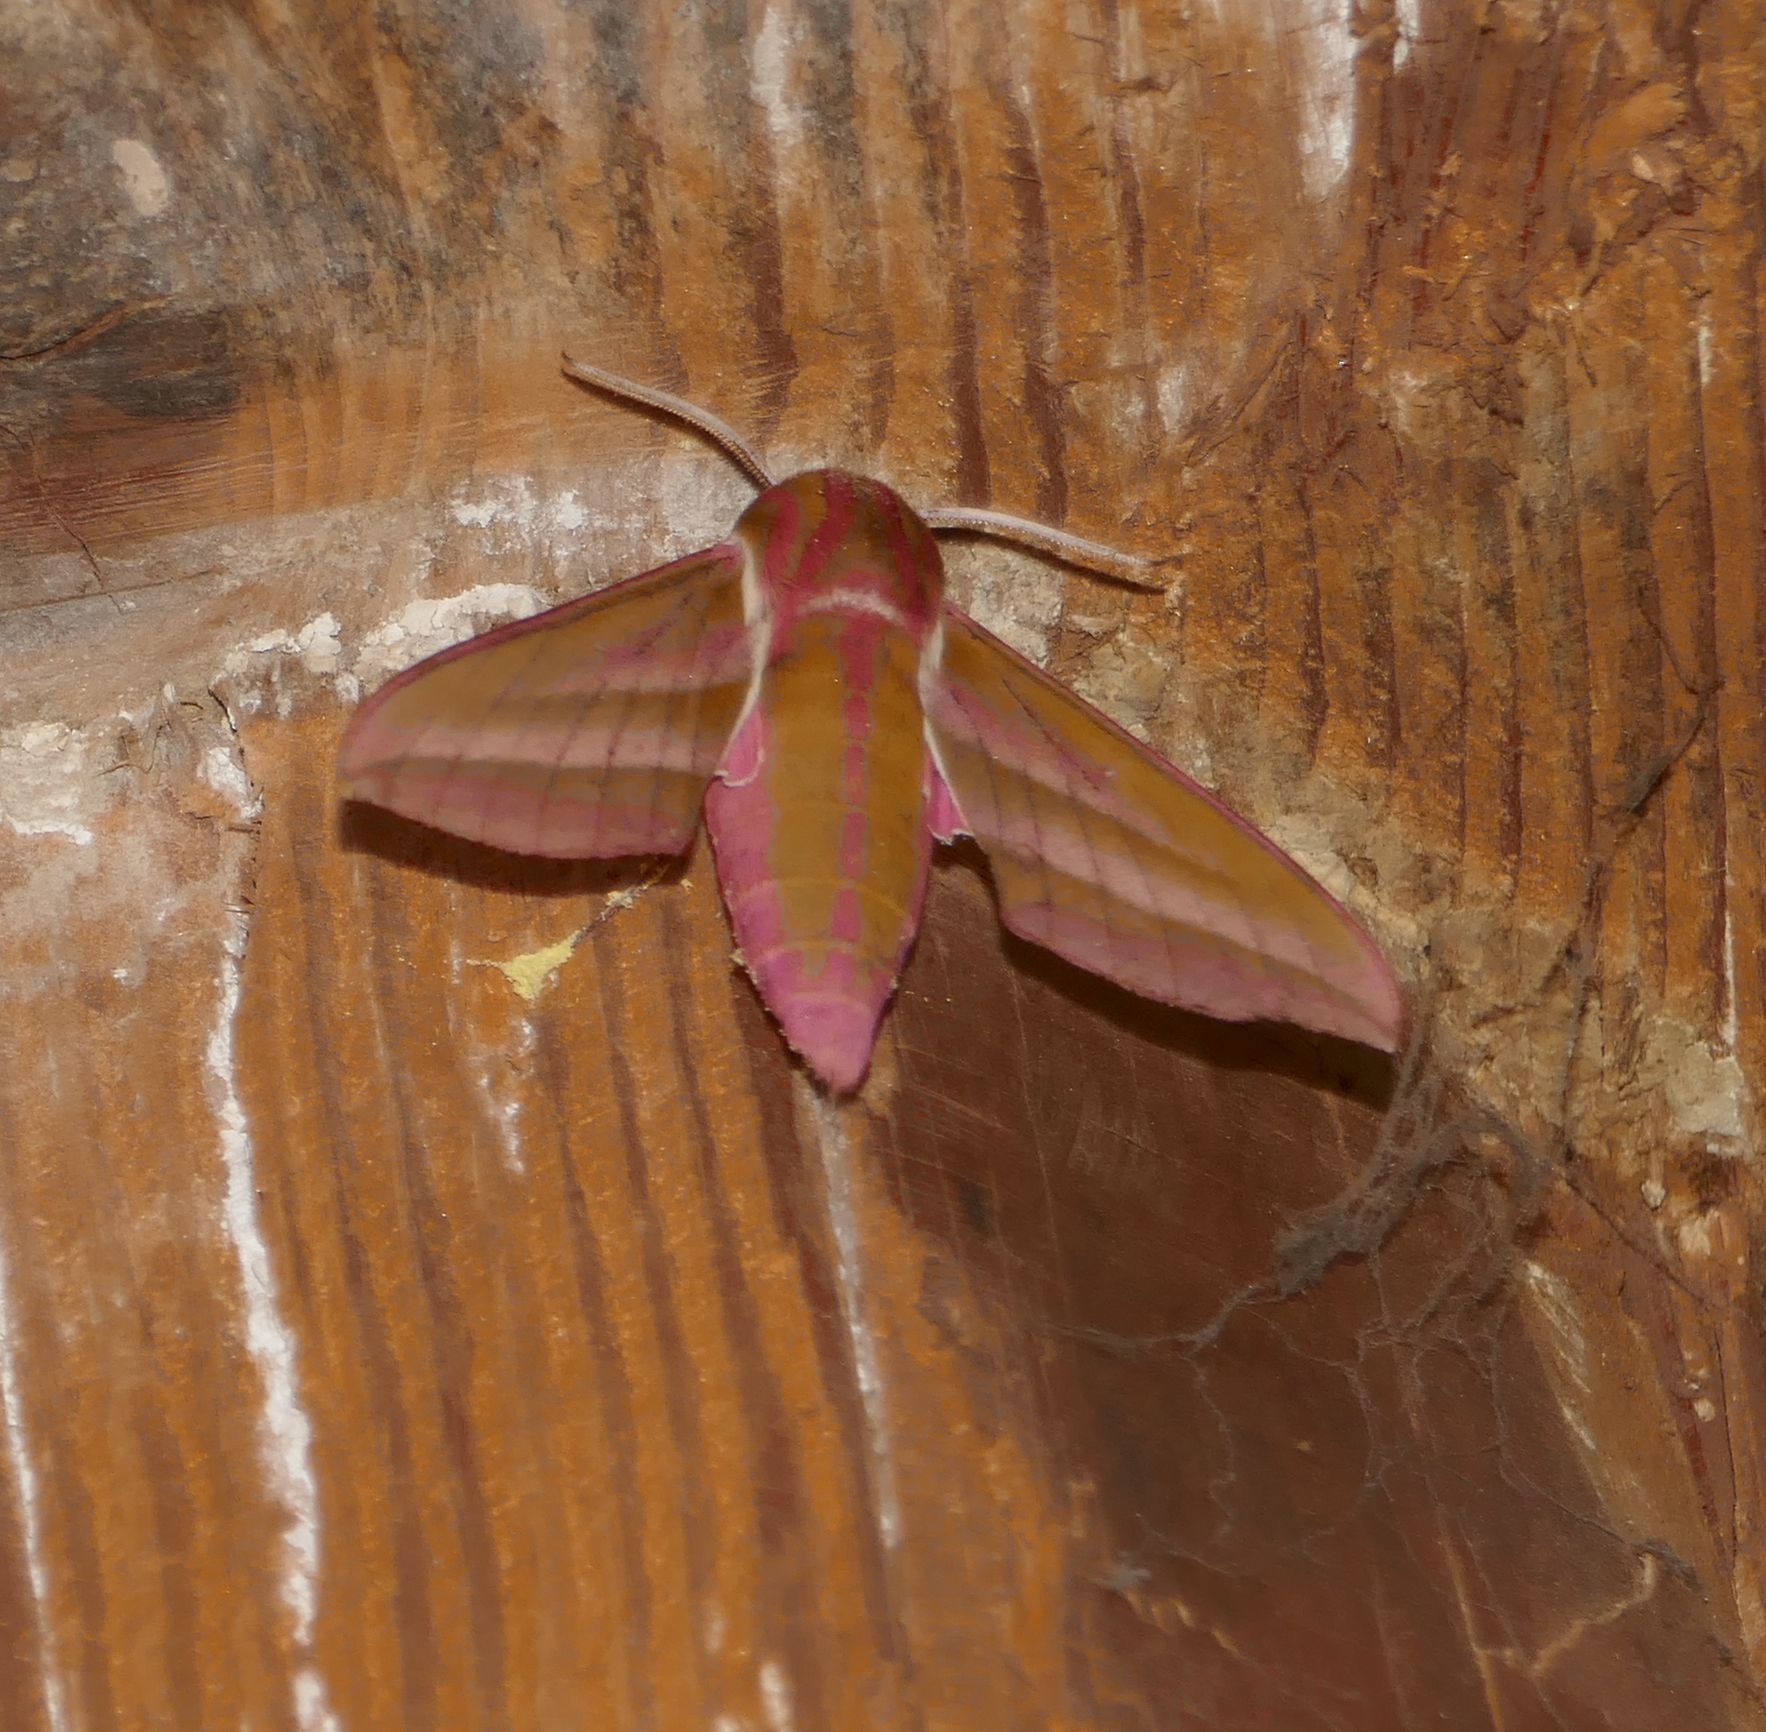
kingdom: Animalia
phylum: Arthropoda
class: Insecta
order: Lepidoptera
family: Sphingidae
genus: Deilephila
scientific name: Deilephila elpenor
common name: Elephant hawk-moth
